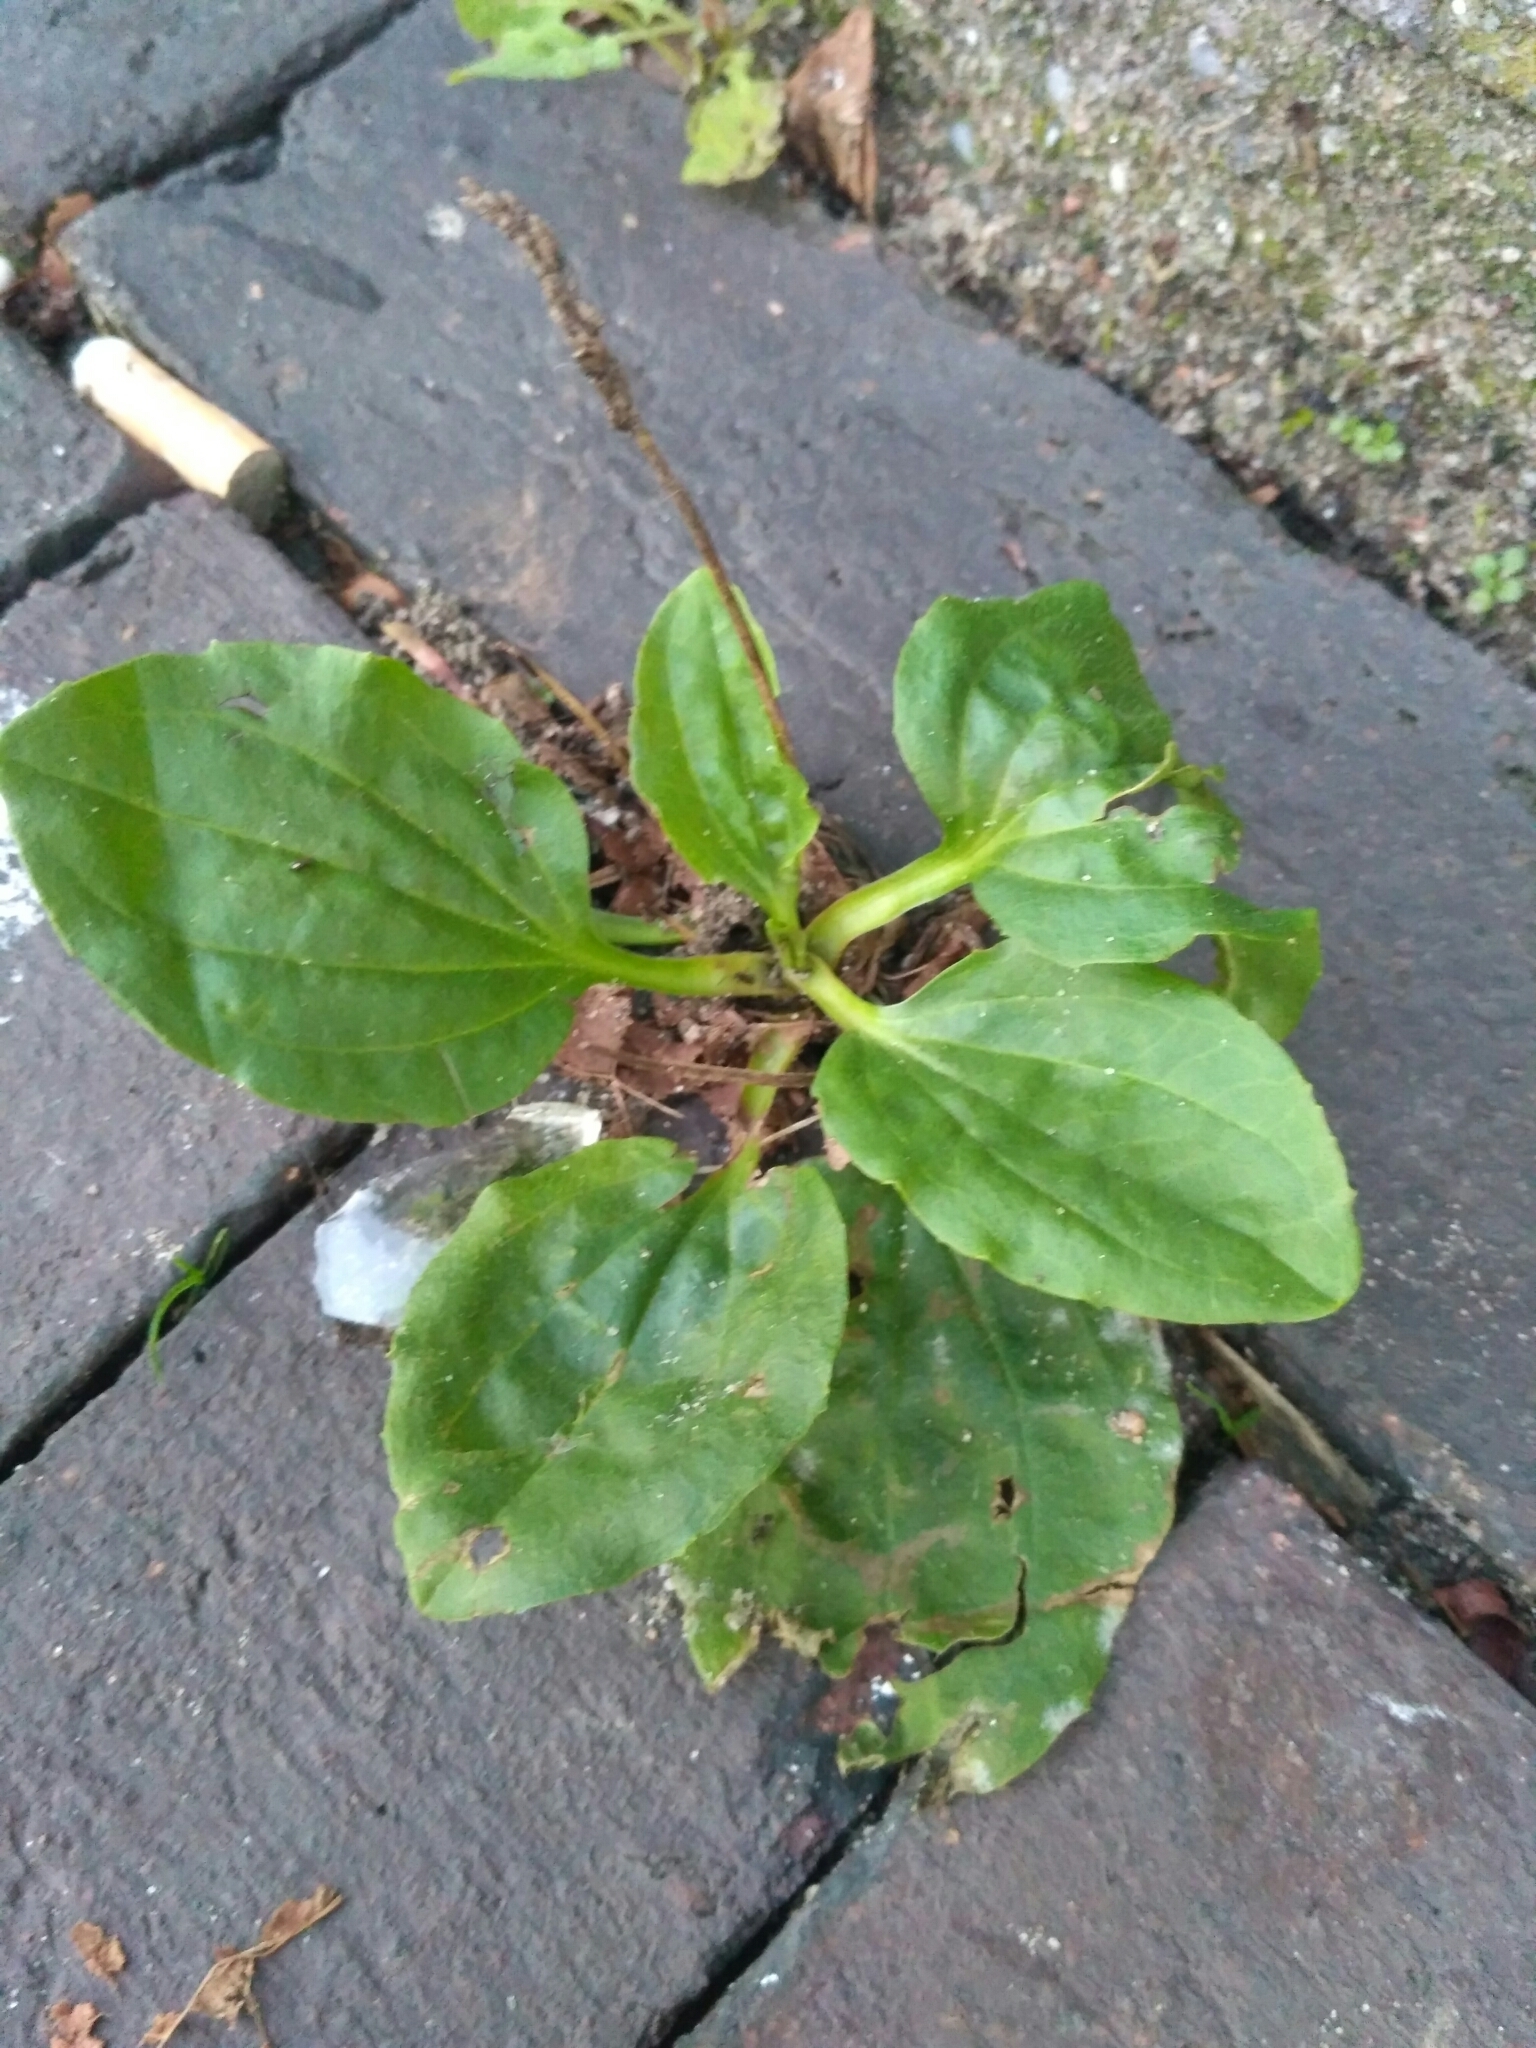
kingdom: Plantae
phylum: Tracheophyta
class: Magnoliopsida
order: Lamiales
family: Plantaginaceae
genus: Plantago
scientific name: Plantago major
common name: Common plantain
